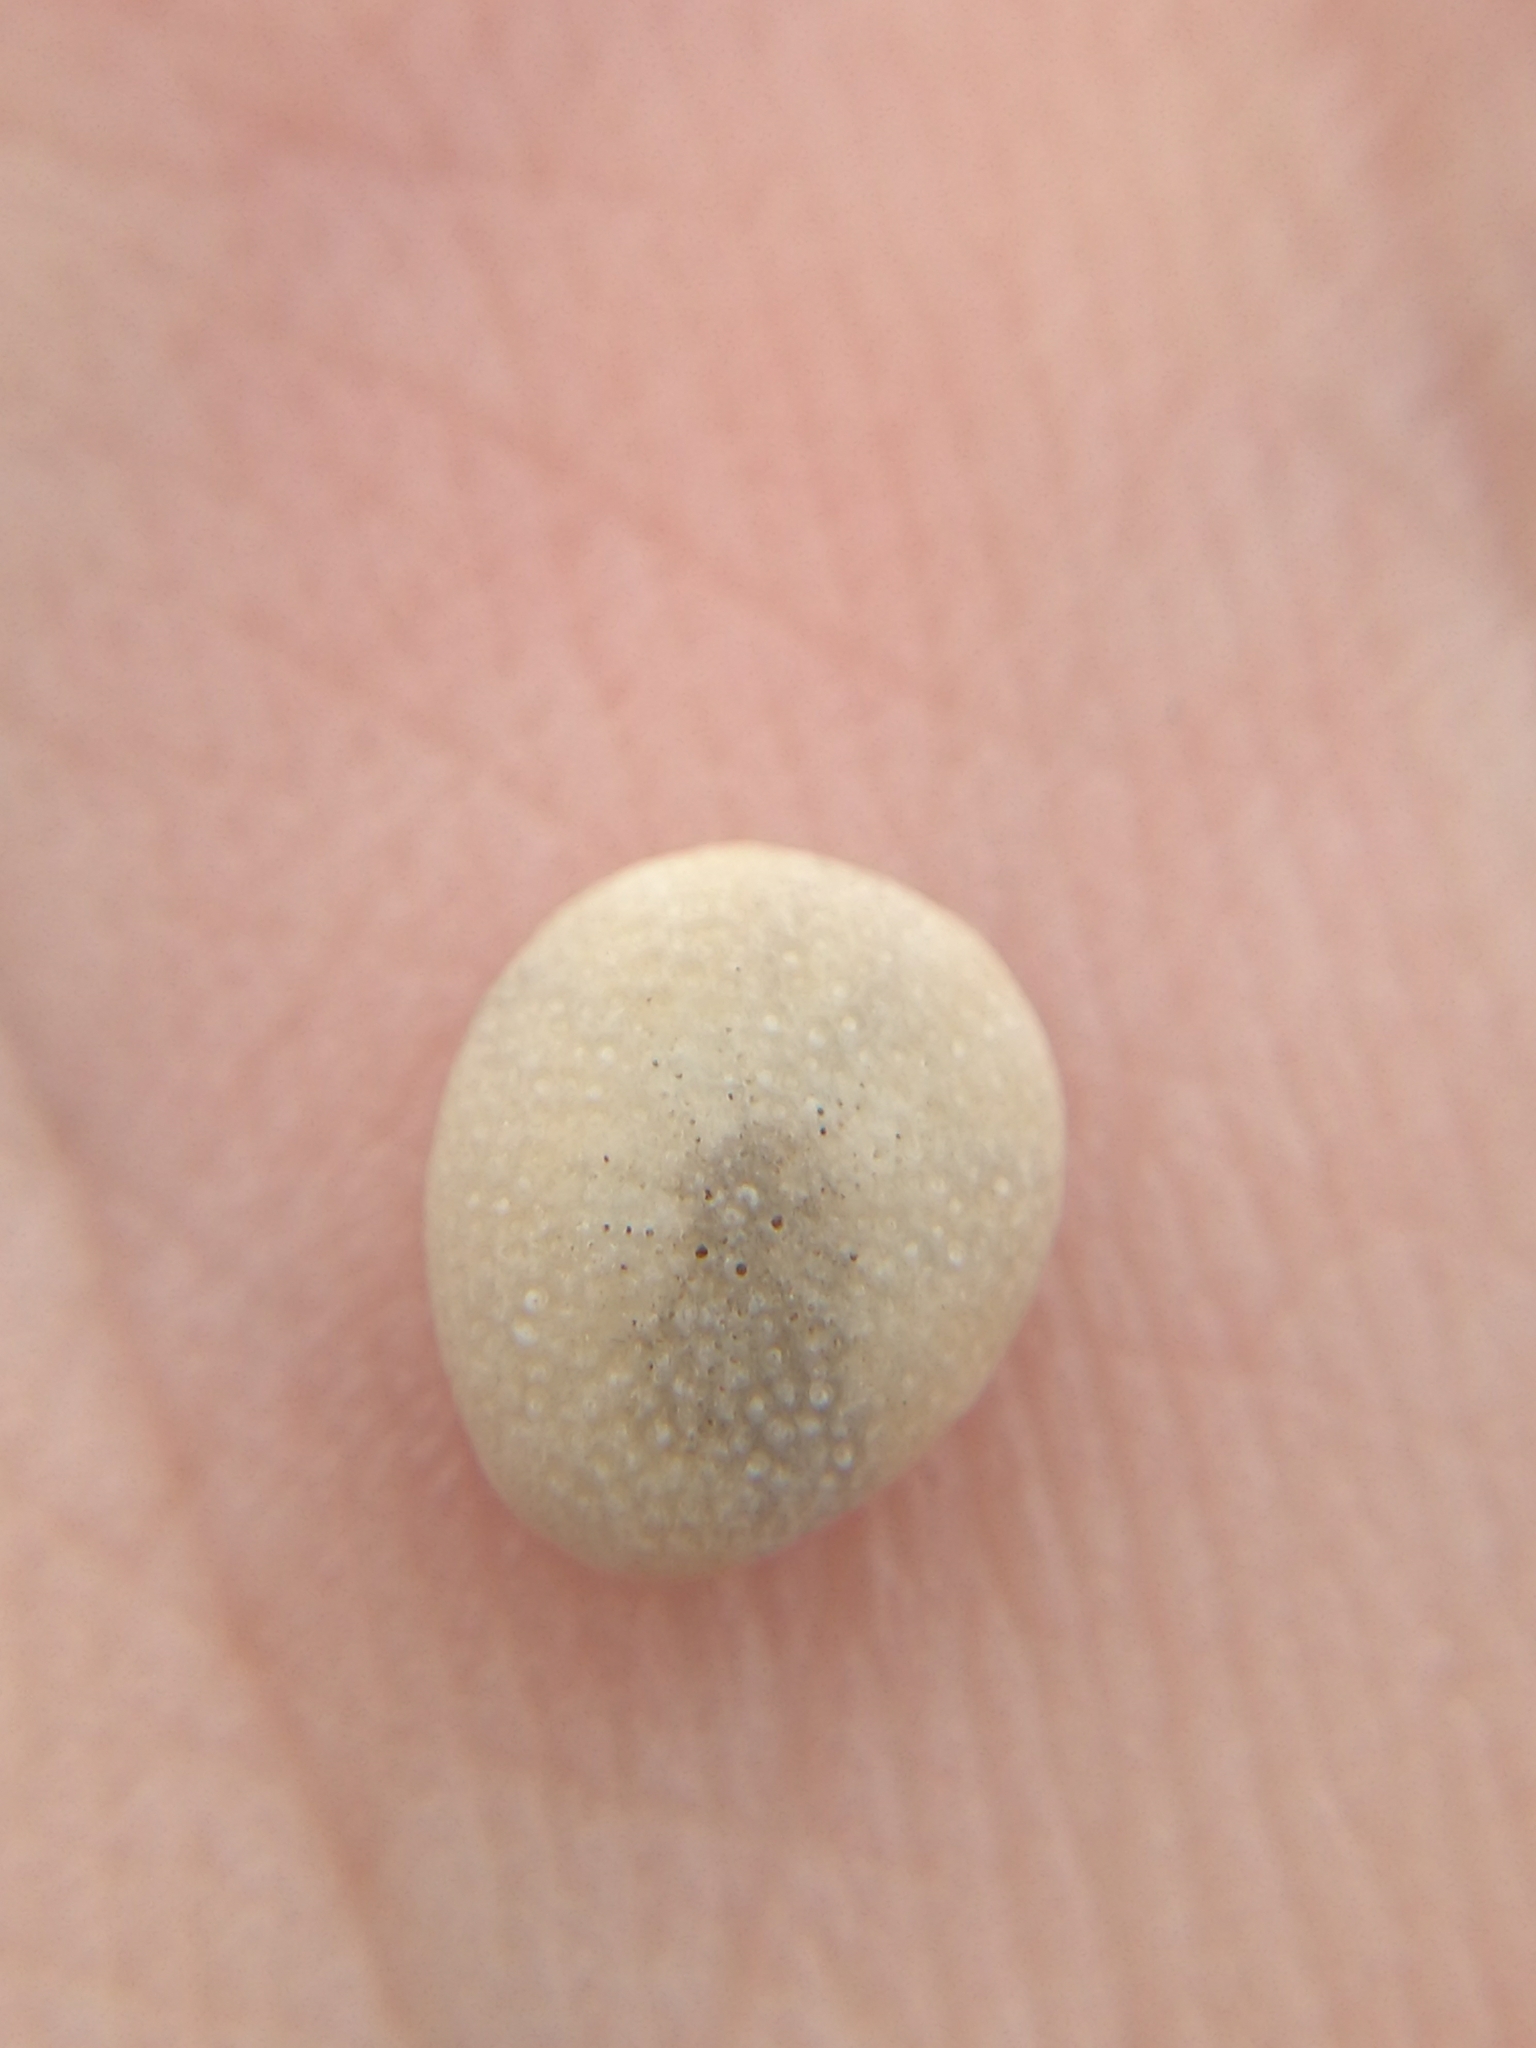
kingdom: Animalia
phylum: Echinodermata
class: Echinoidea
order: Echinolampadacea
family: Fibulariidae
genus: Echinocyamus
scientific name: Echinocyamus pusillus
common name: Broad beau of sea
